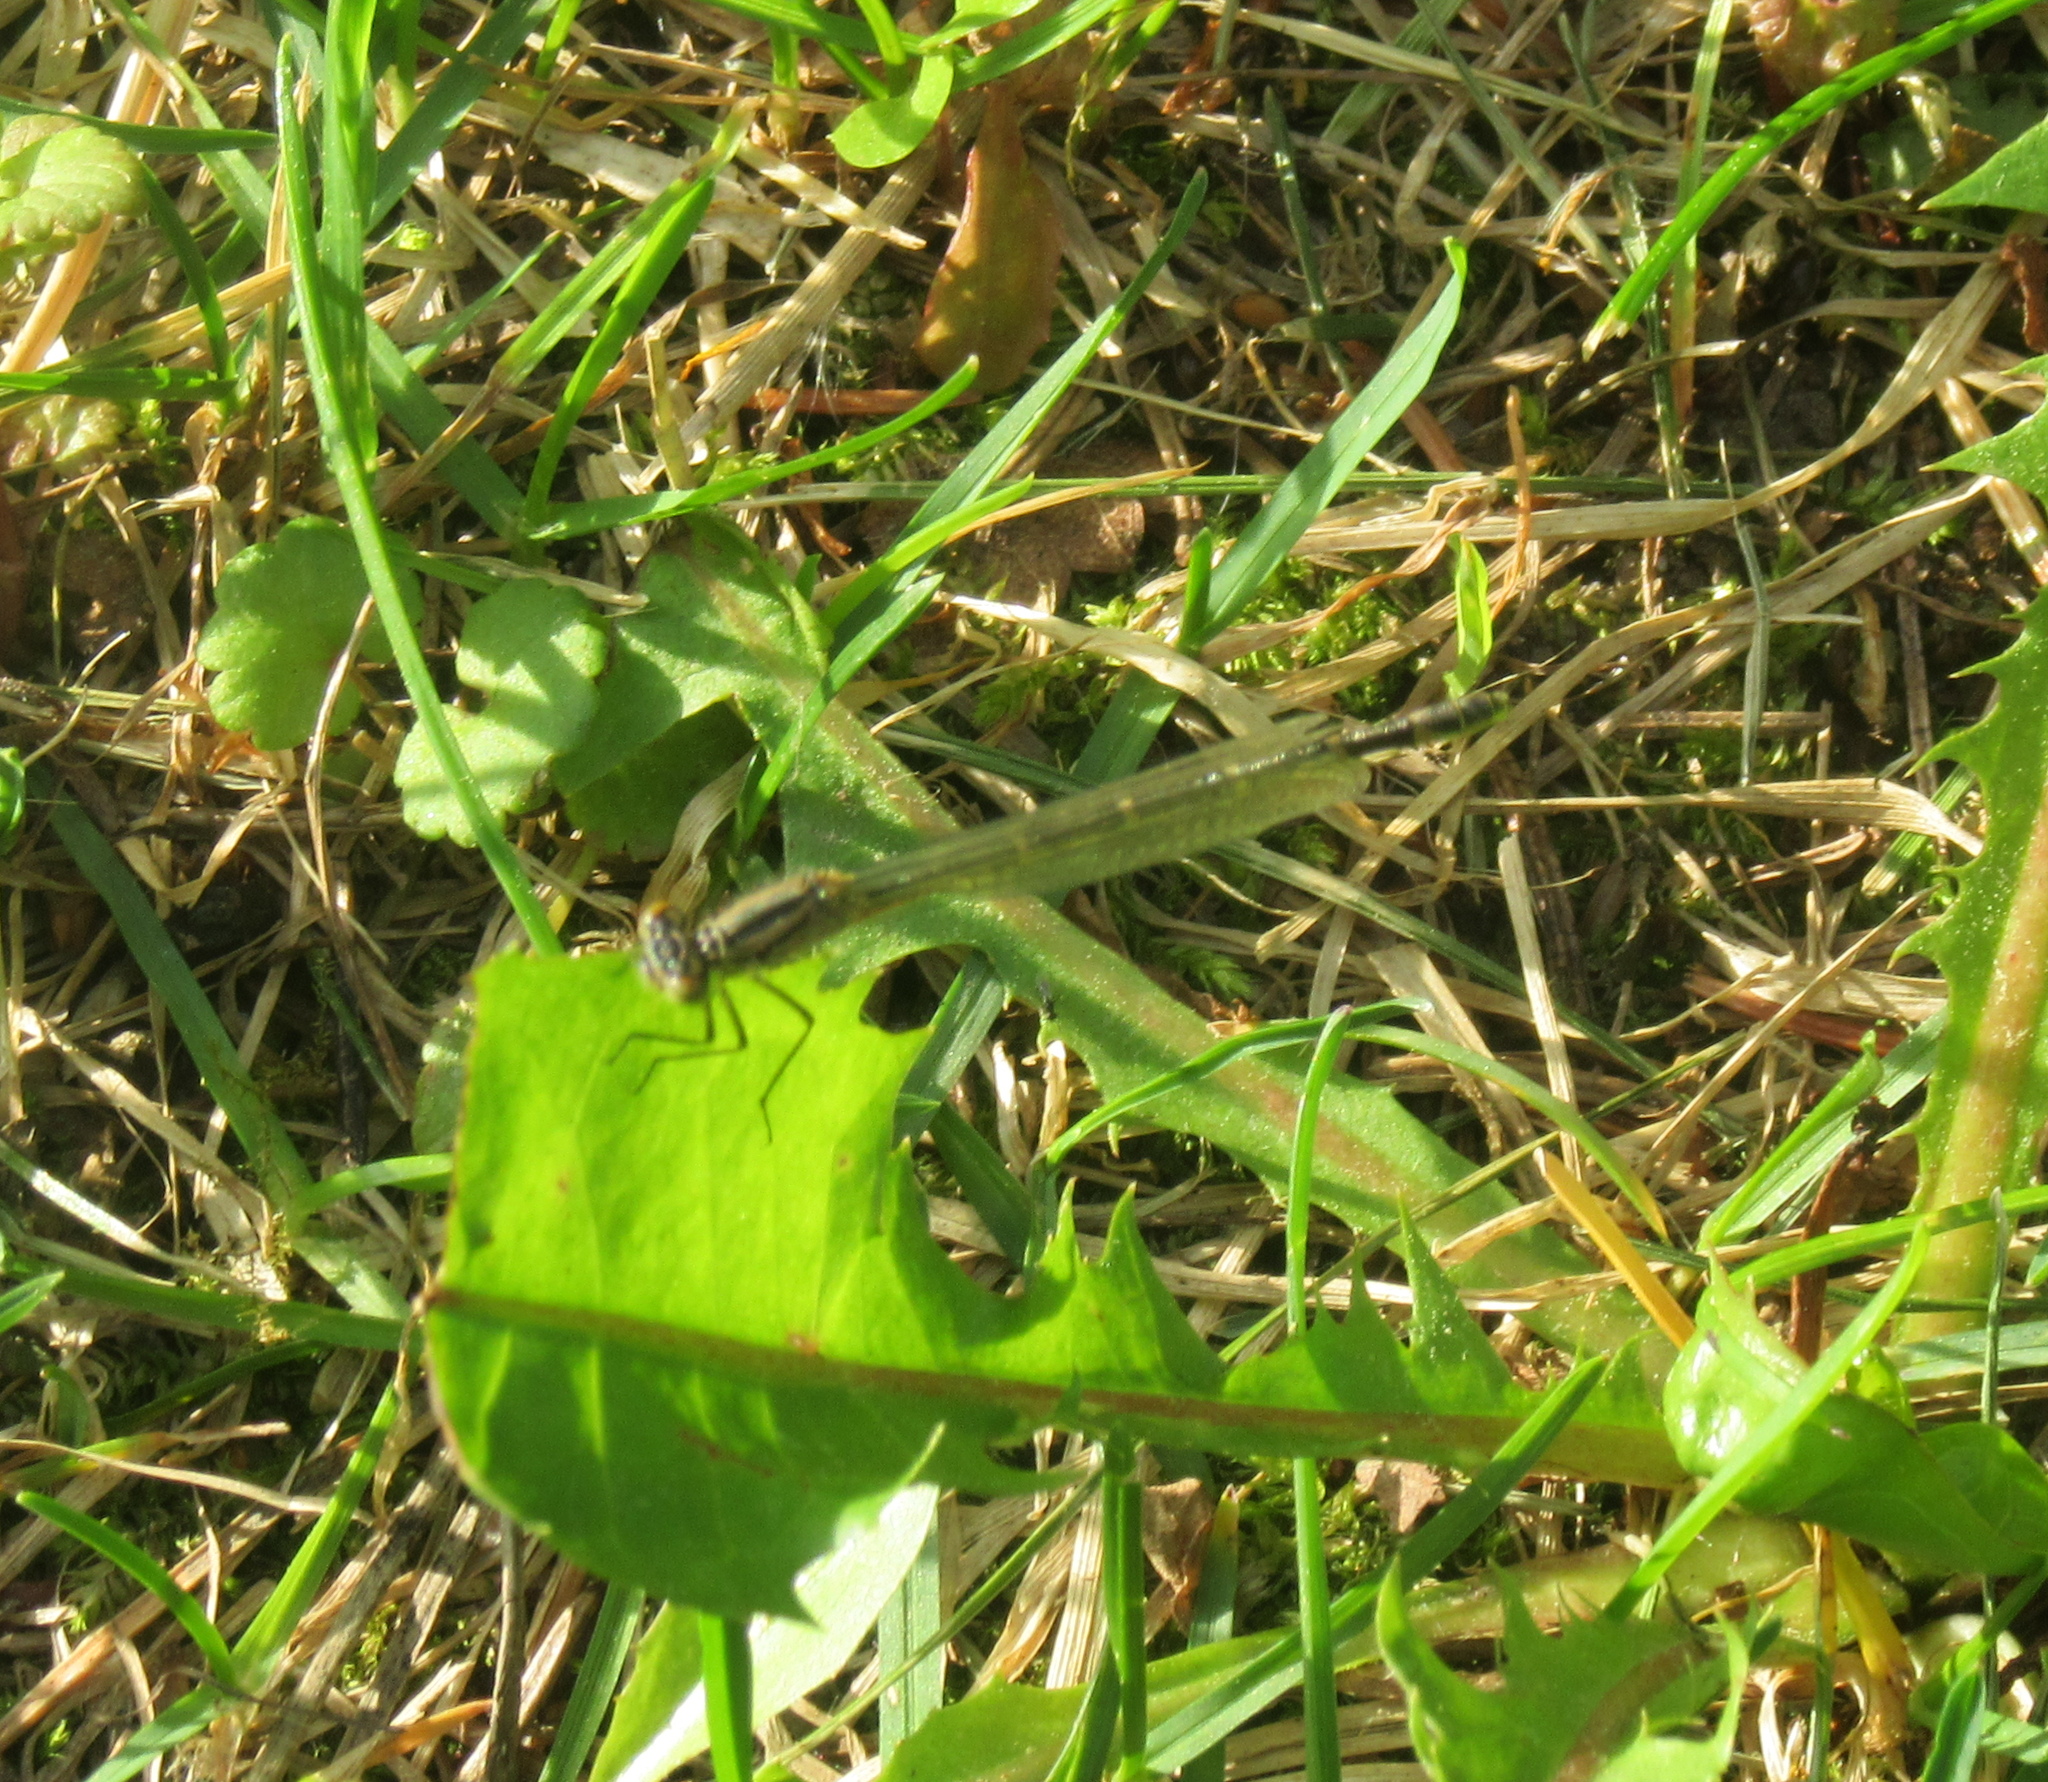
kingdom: Animalia
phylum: Arthropoda
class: Insecta
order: Odonata
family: Coenagrionidae
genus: Enallagma
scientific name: Enallagma cyathigerum
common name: Common blue damselfly
